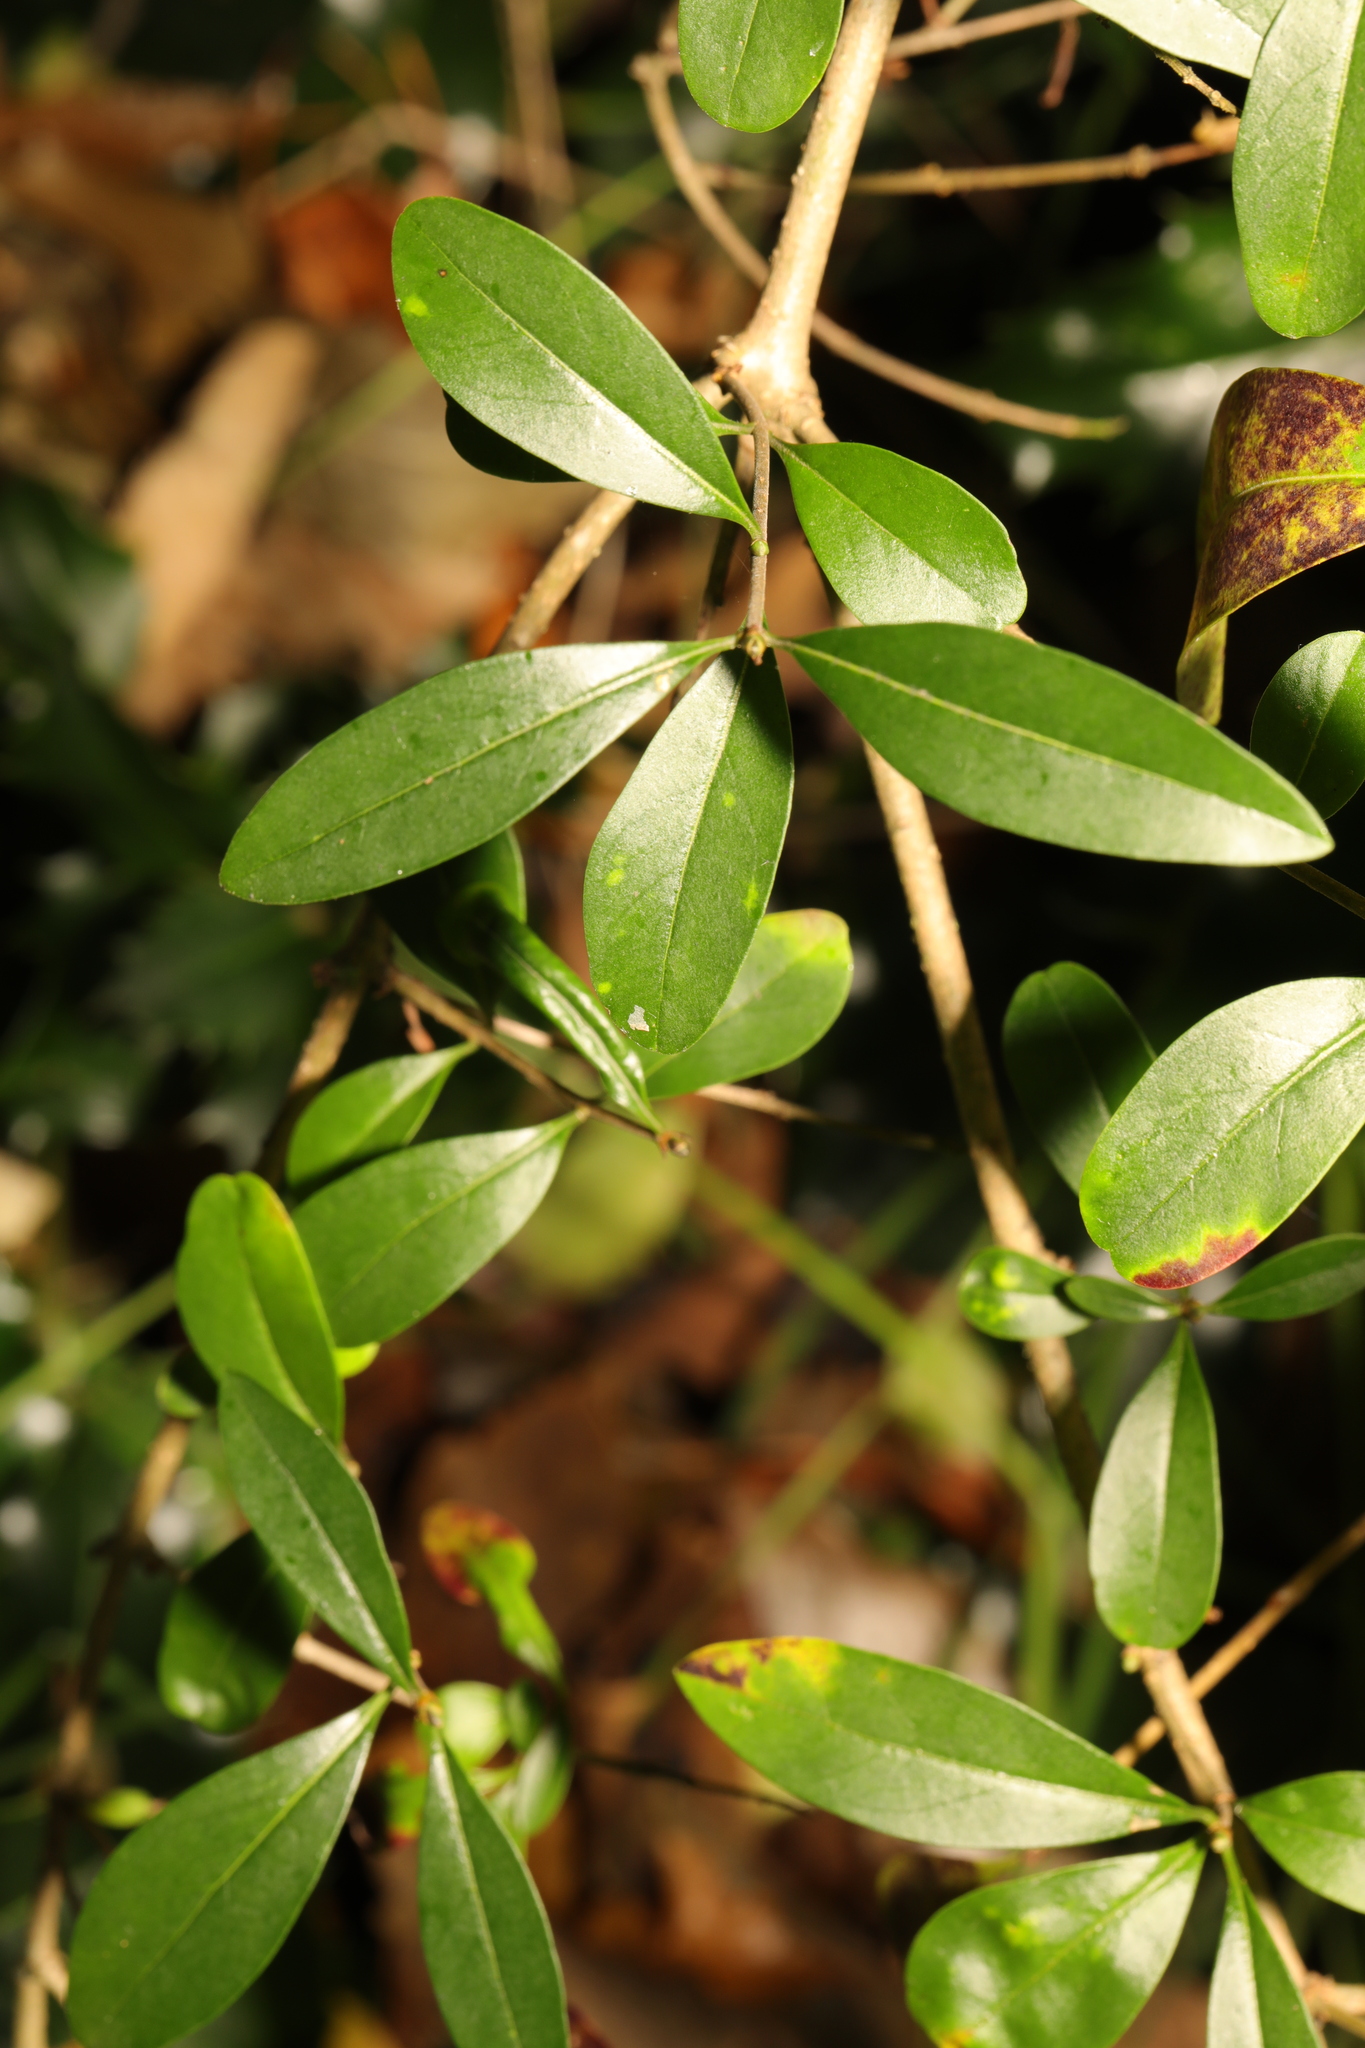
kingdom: Plantae
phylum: Tracheophyta
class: Magnoliopsida
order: Rosales
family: Rosaceae
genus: Pyracantha
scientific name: Pyracantha coccinea
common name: Firethorn
